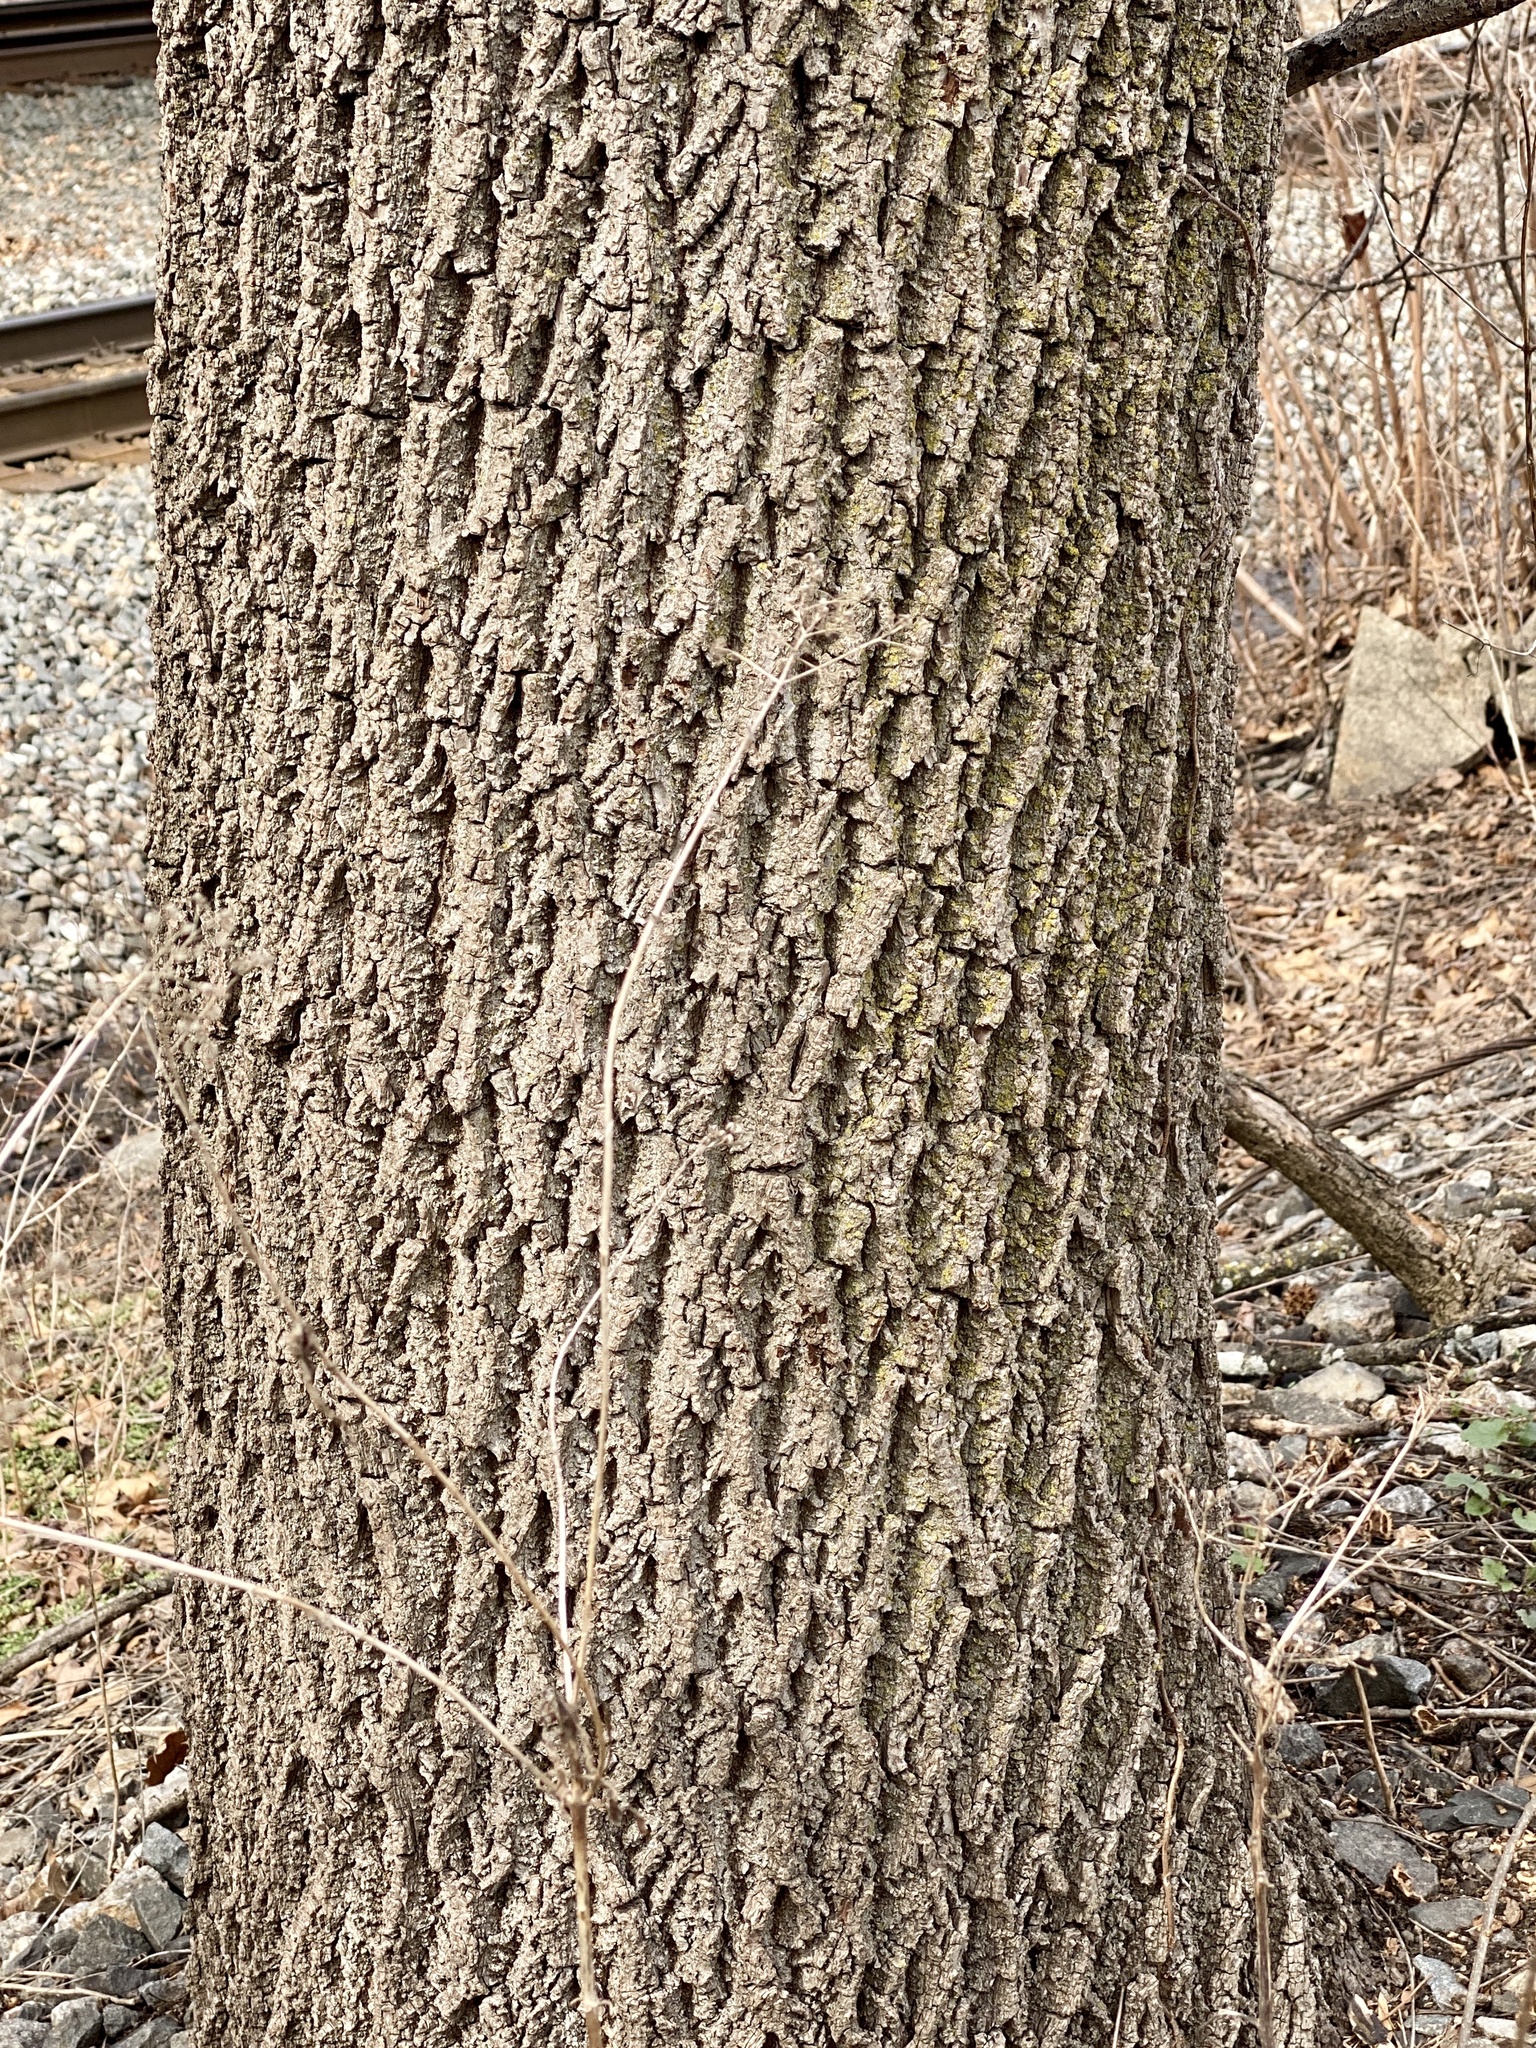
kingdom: Plantae
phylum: Tracheophyta
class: Magnoliopsida
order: Fagales
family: Juglandaceae
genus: Juglans
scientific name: Juglans nigra
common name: Black walnut
